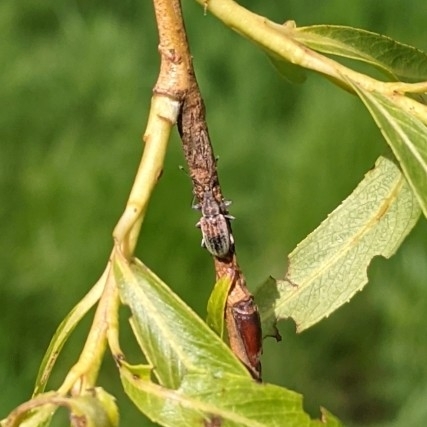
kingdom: Animalia
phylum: Arthropoda
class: Insecta
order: Coleoptera
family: Curculionidae
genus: Phyllobius
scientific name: Phyllobius pyri
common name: Common leaf weevil
